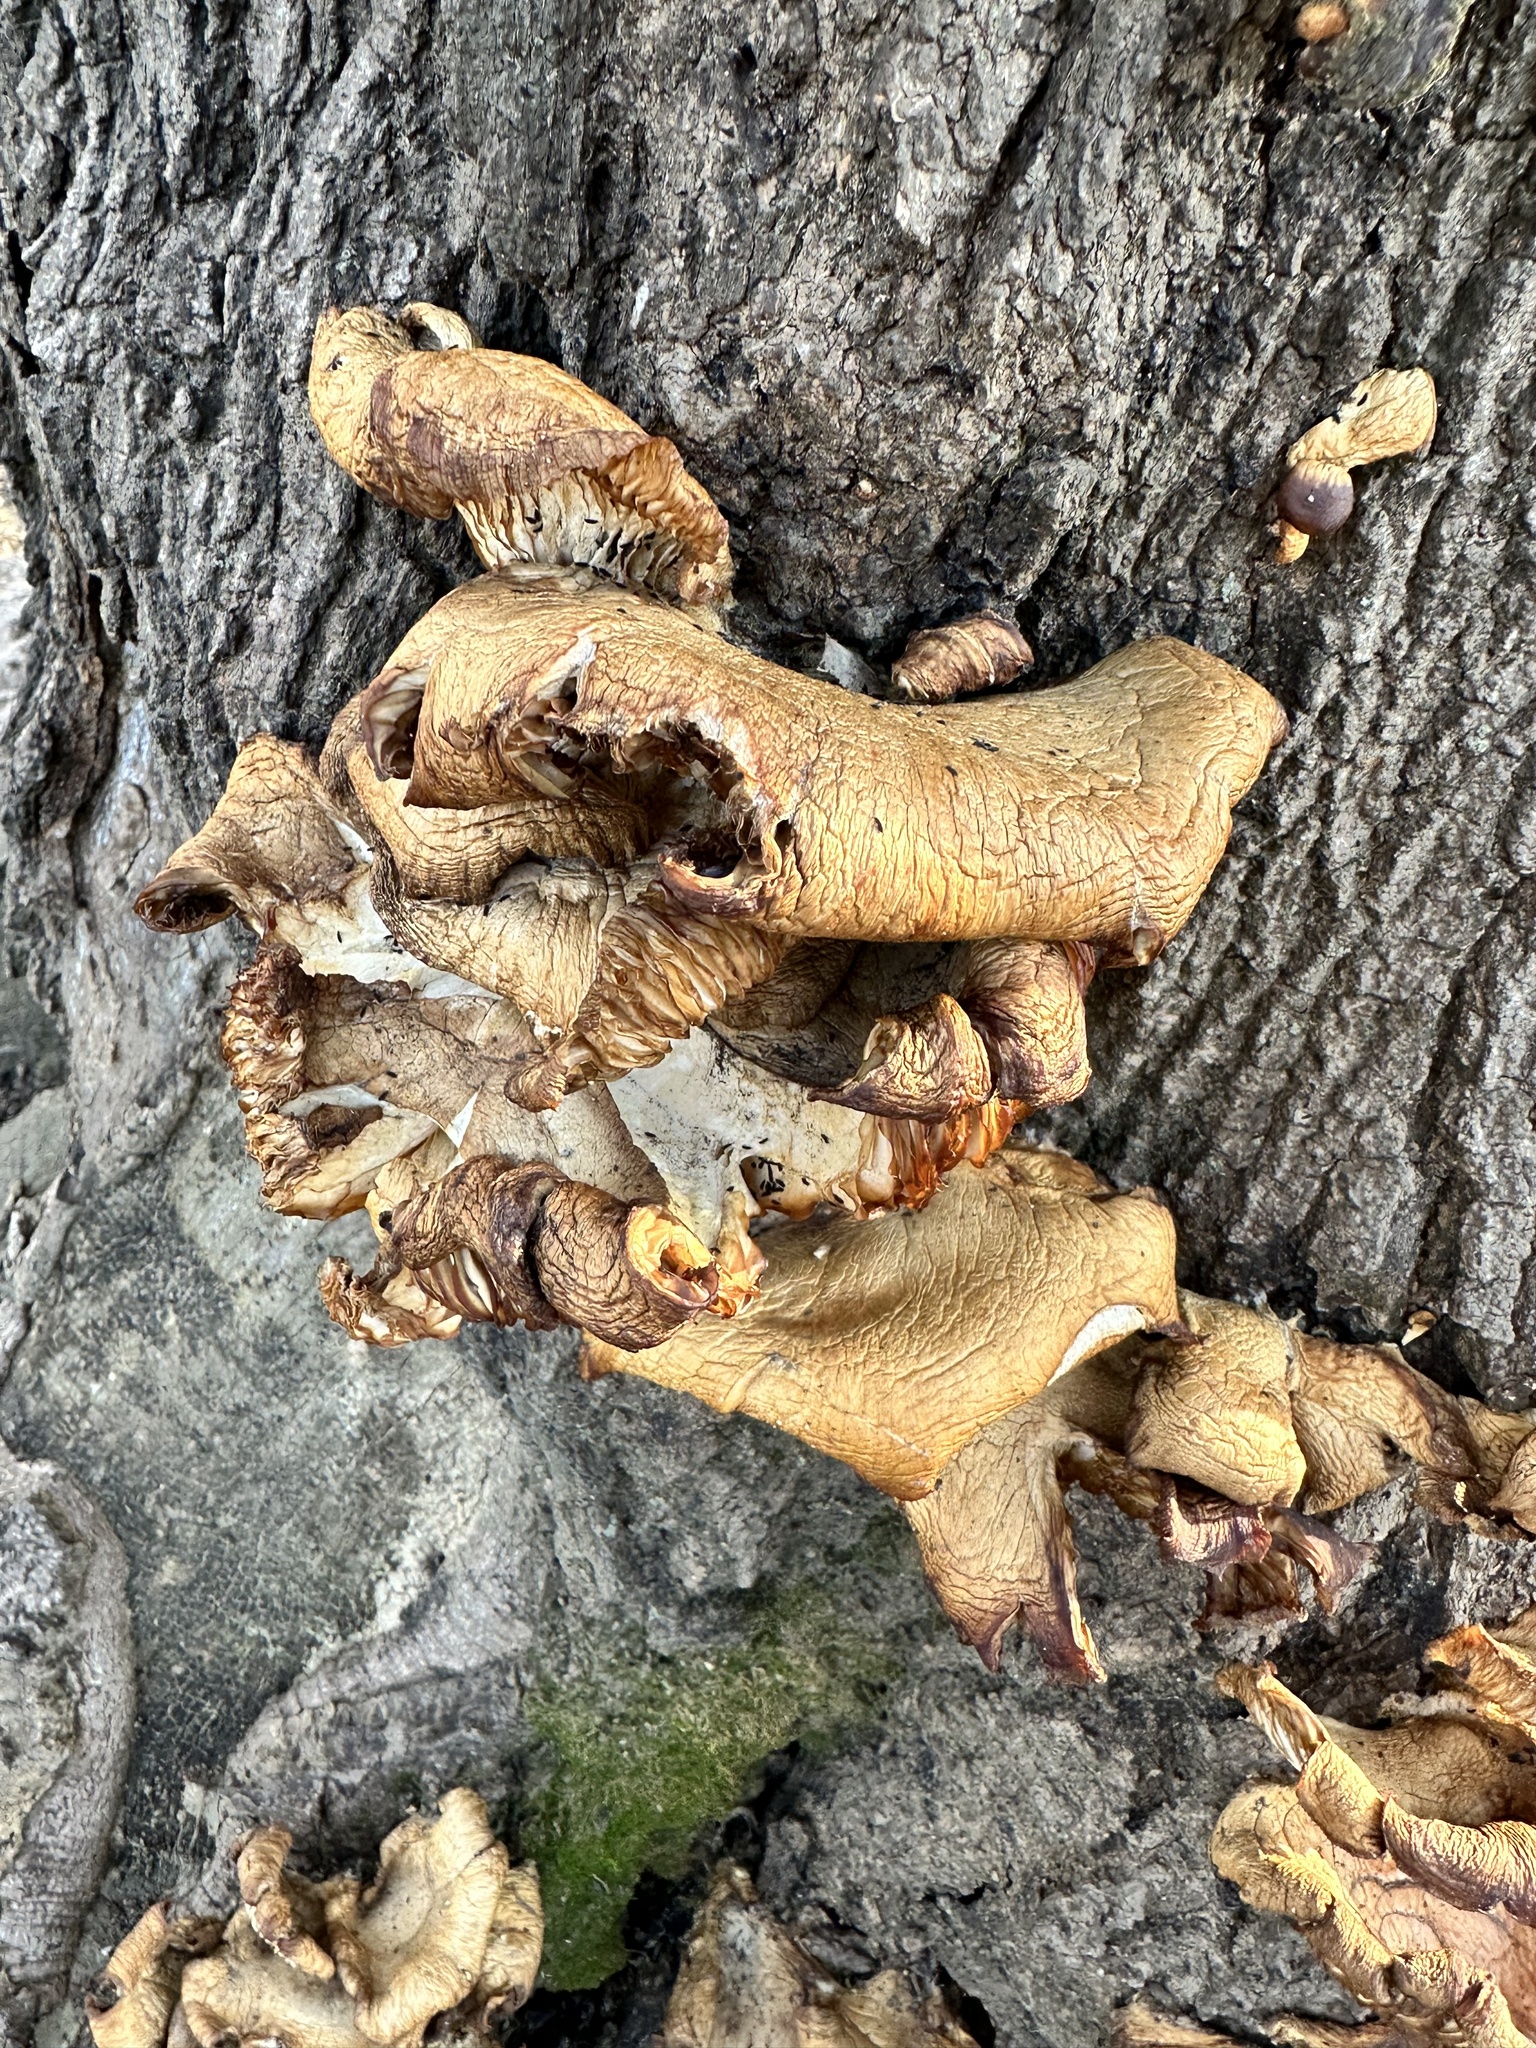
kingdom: Fungi
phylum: Basidiomycota
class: Agaricomycetes
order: Agaricales
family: Pleurotaceae
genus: Pleurotus
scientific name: Pleurotus ostreatus
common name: Oyster mushroom
